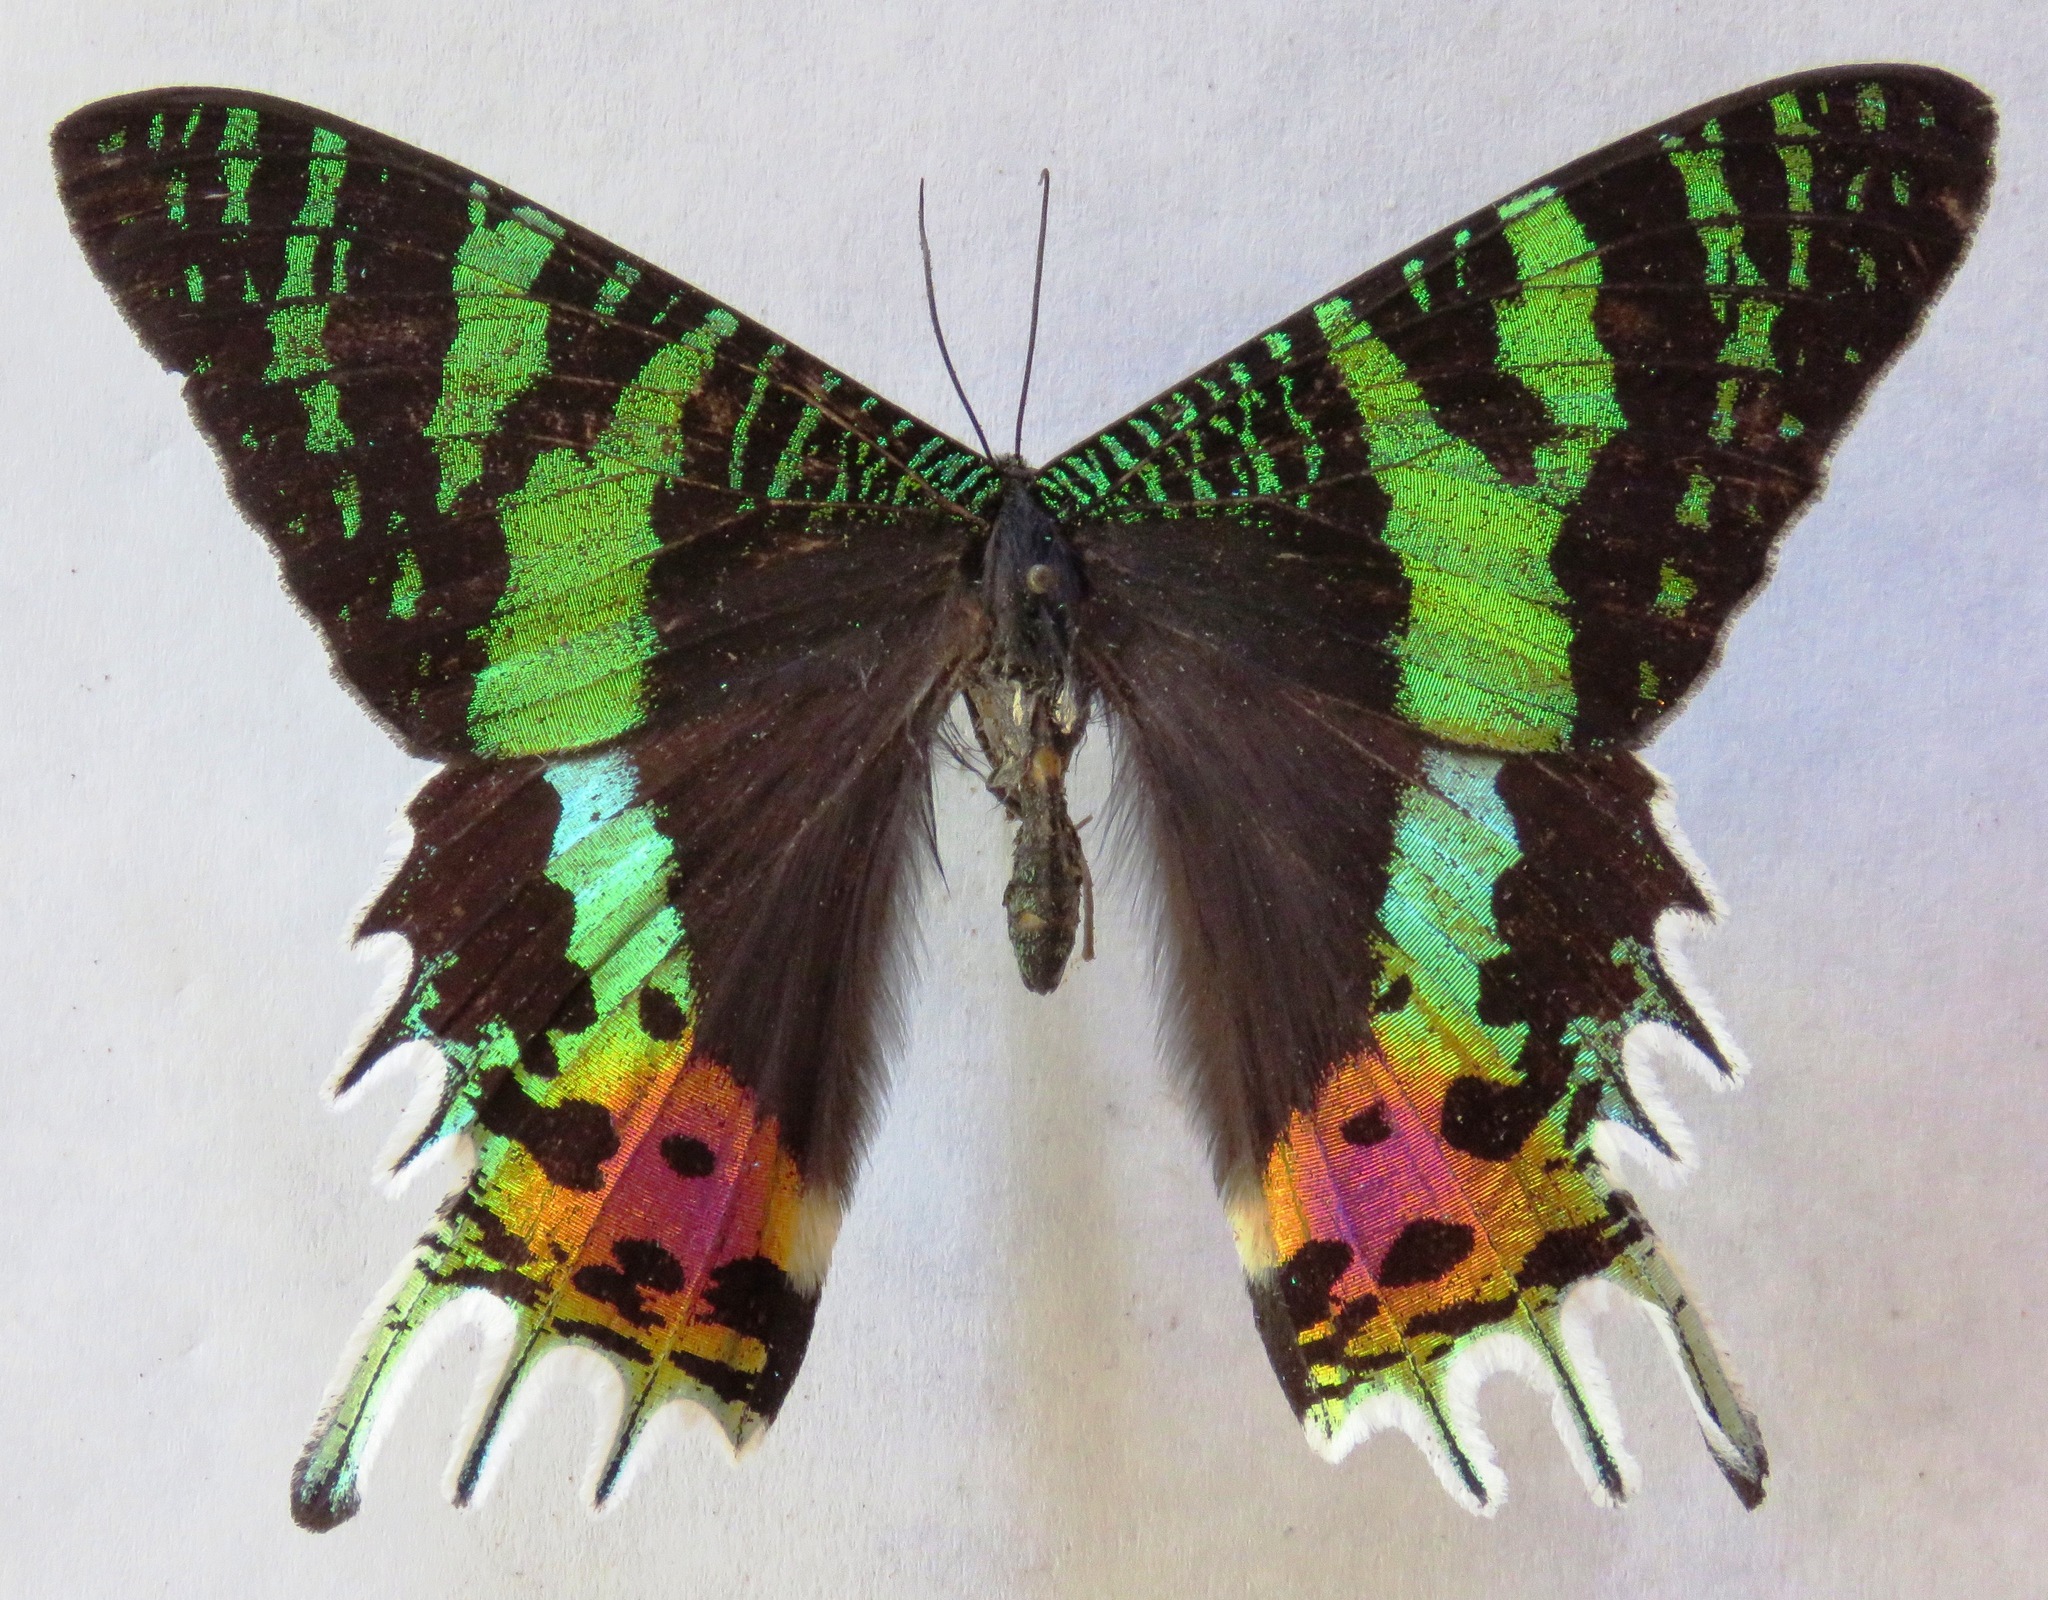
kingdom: Animalia
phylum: Arthropoda
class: Insecta
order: Lepidoptera
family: Uraniidae
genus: Chrysiridia
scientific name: Chrysiridia rhipheus
